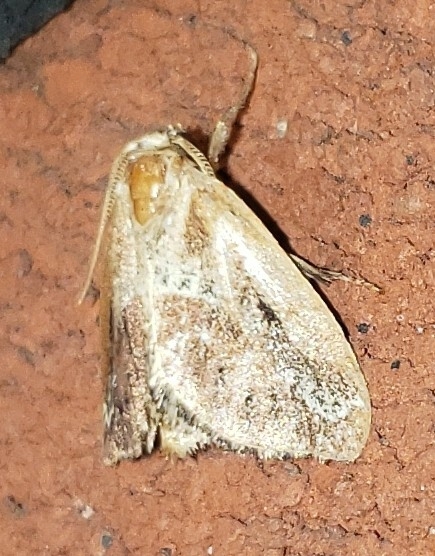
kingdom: Animalia
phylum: Arthropoda
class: Insecta
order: Lepidoptera
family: Limacodidae
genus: Adoneta
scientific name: Adoneta spinuloides
